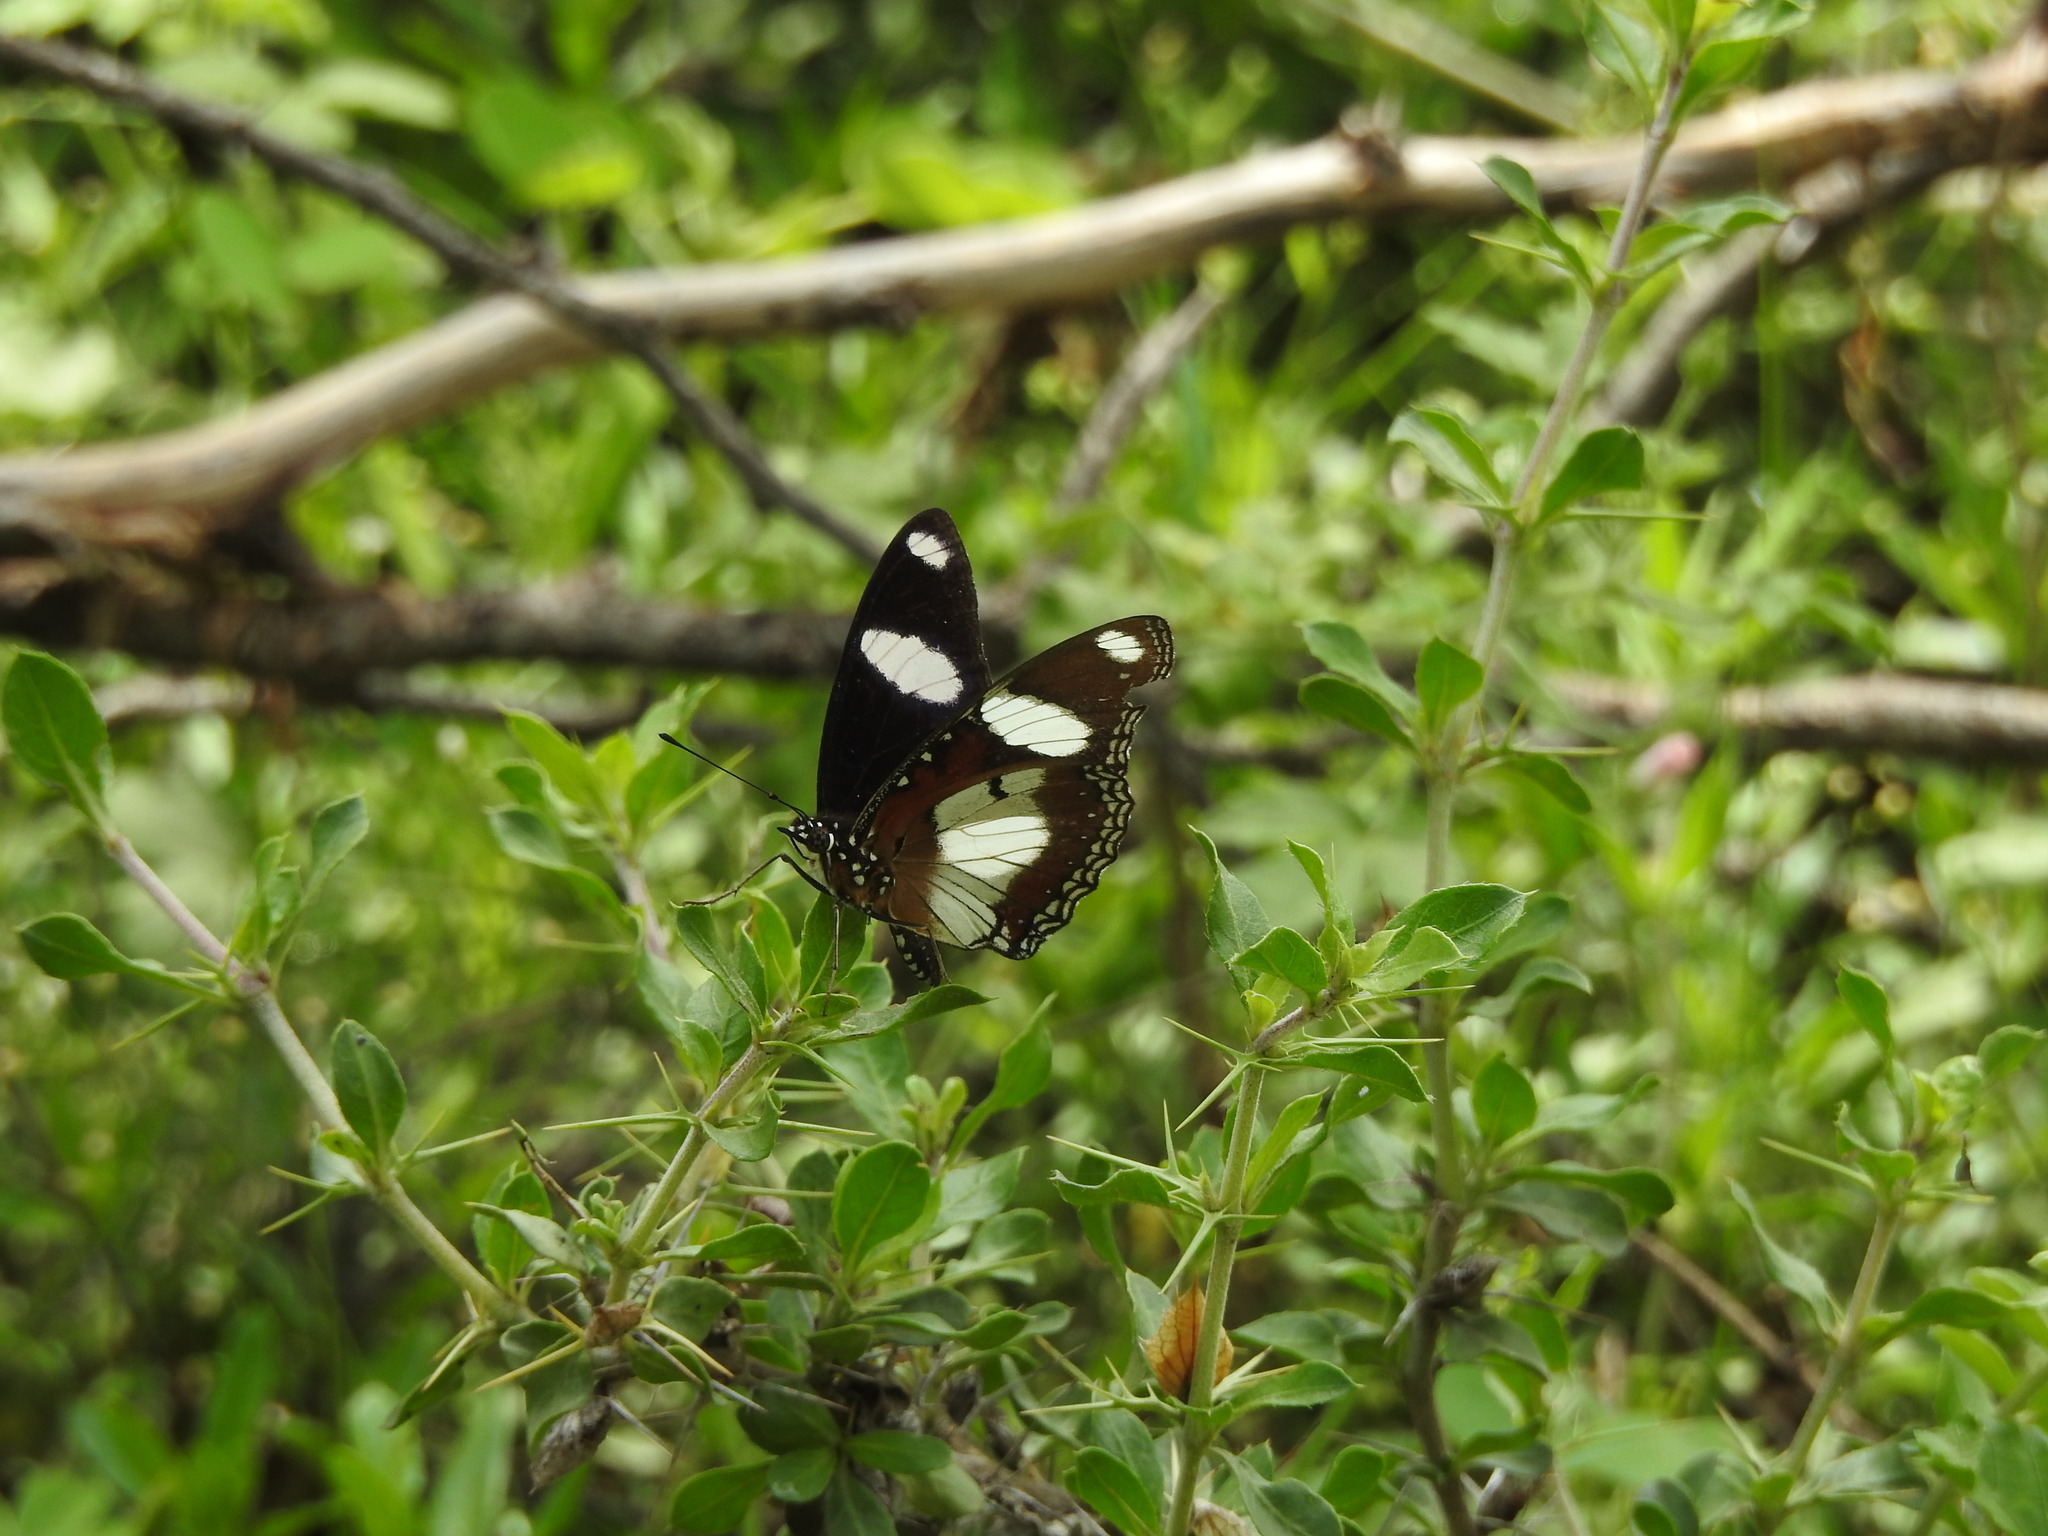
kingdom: Animalia
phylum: Arthropoda
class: Insecta
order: Lepidoptera
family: Nymphalidae
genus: Hypolimnas
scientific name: Hypolimnas misippus
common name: False plain tiger
